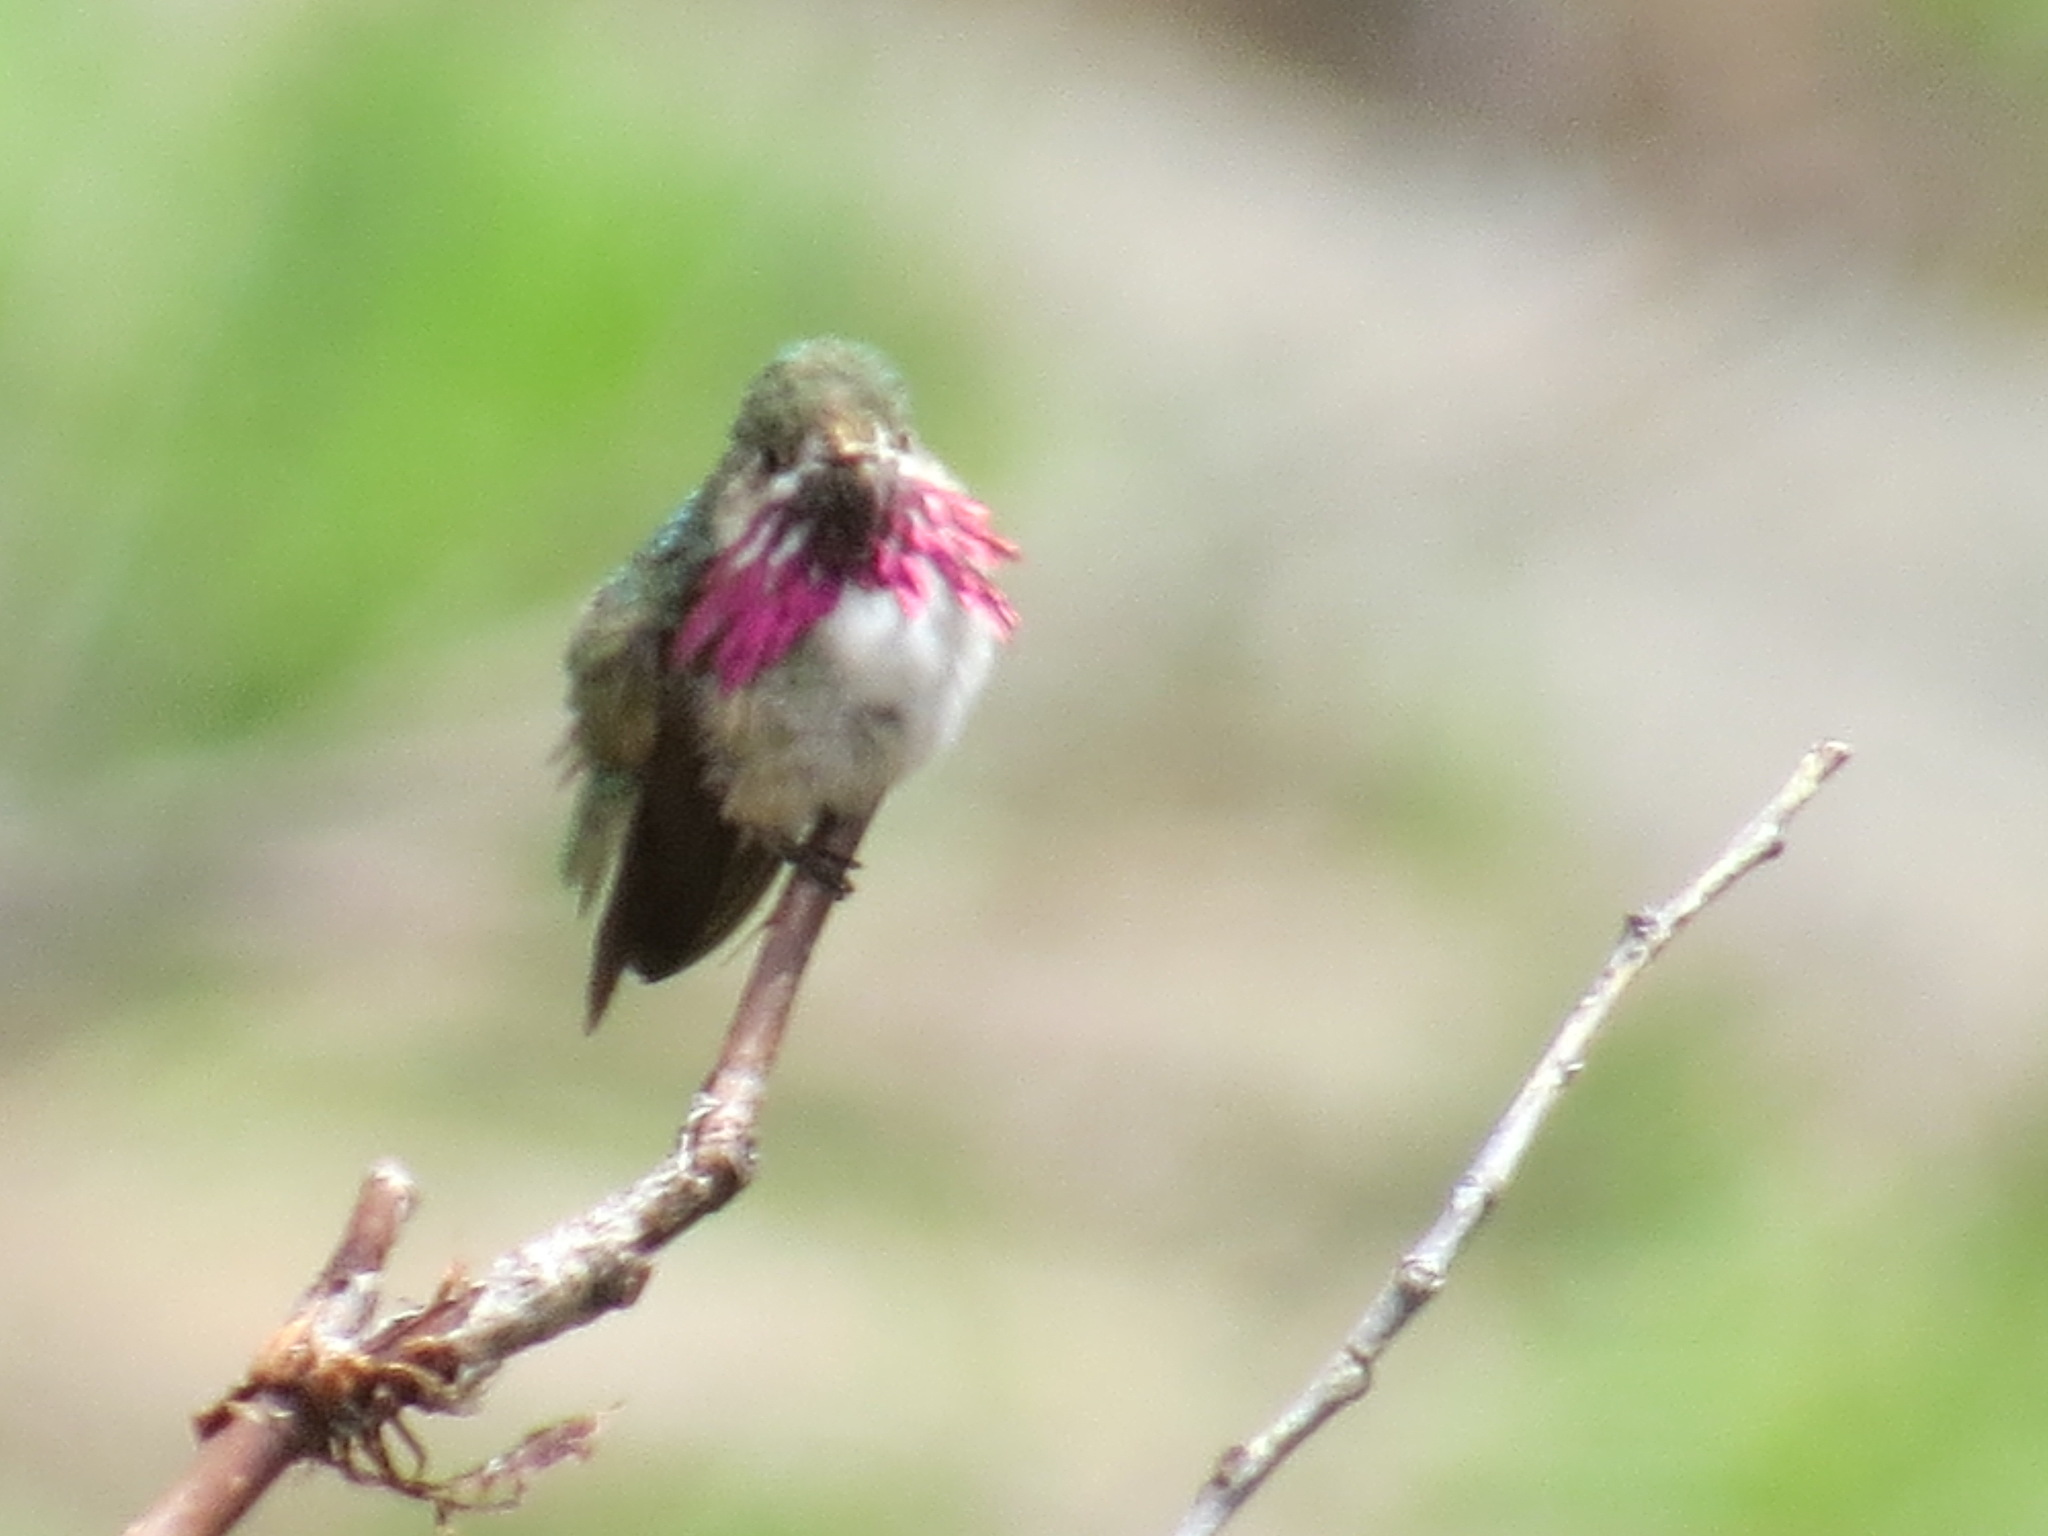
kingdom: Animalia
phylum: Chordata
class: Aves
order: Apodiformes
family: Trochilidae
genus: Selasphorus
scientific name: Selasphorus calliope
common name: Calliope hummingbird
